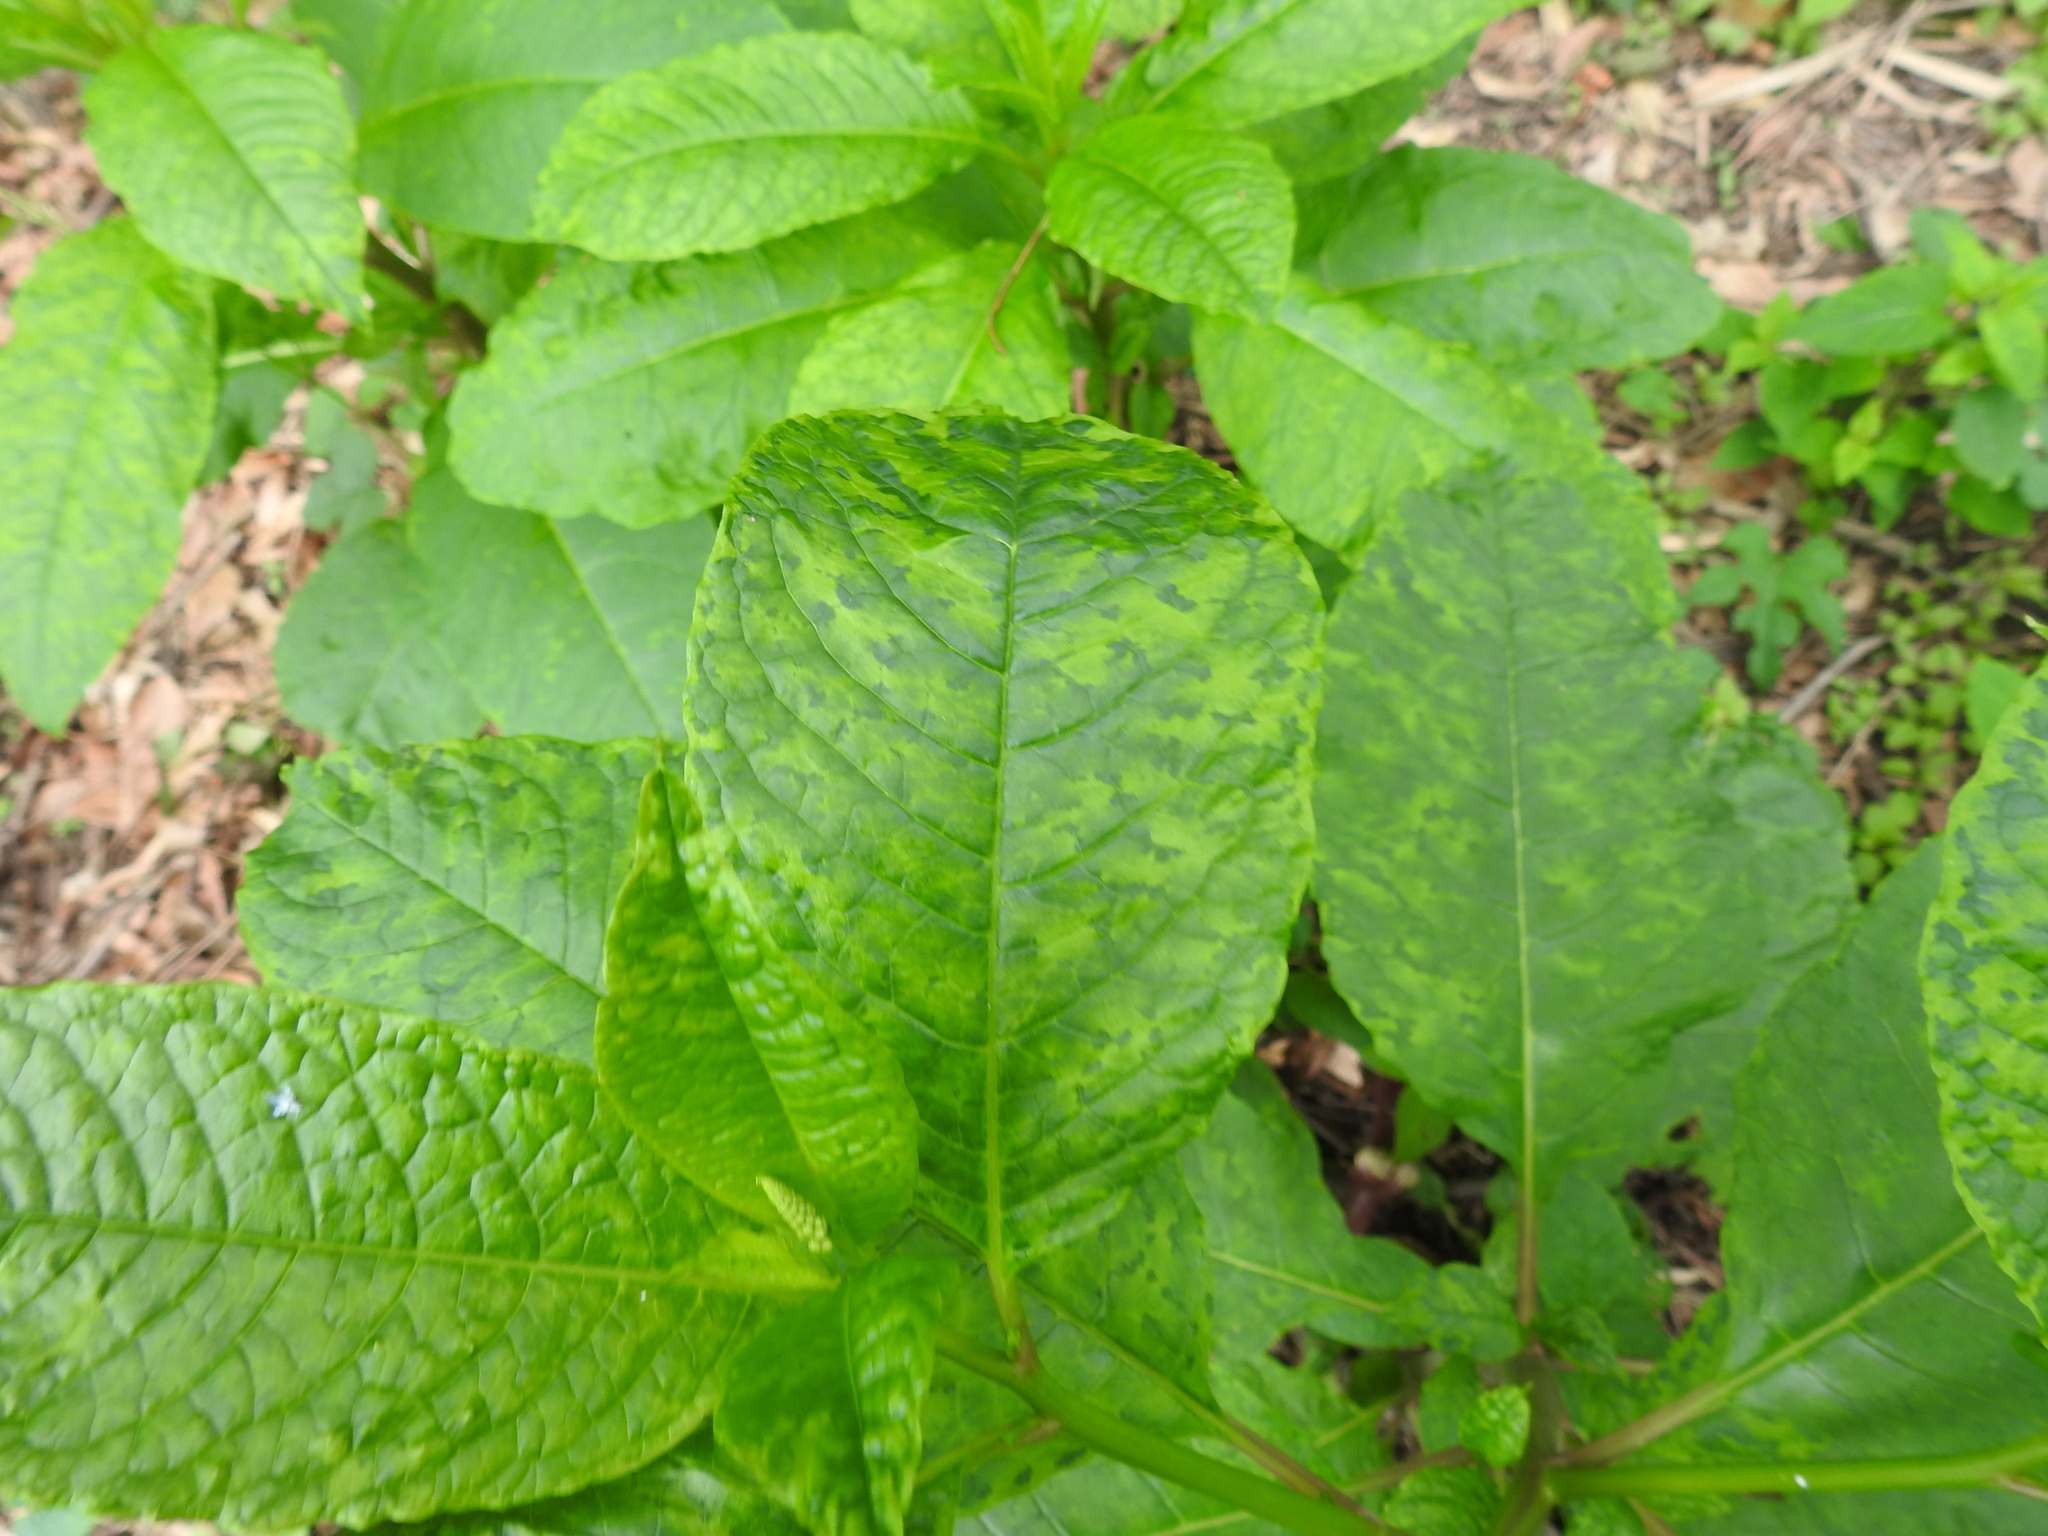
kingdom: Viruses
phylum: Pisuviricota
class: Stelpaviricetes
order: Patatavirales
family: Potyviridae
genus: Potyvirus
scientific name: Potyvirus Pokeweed mosaic virus
